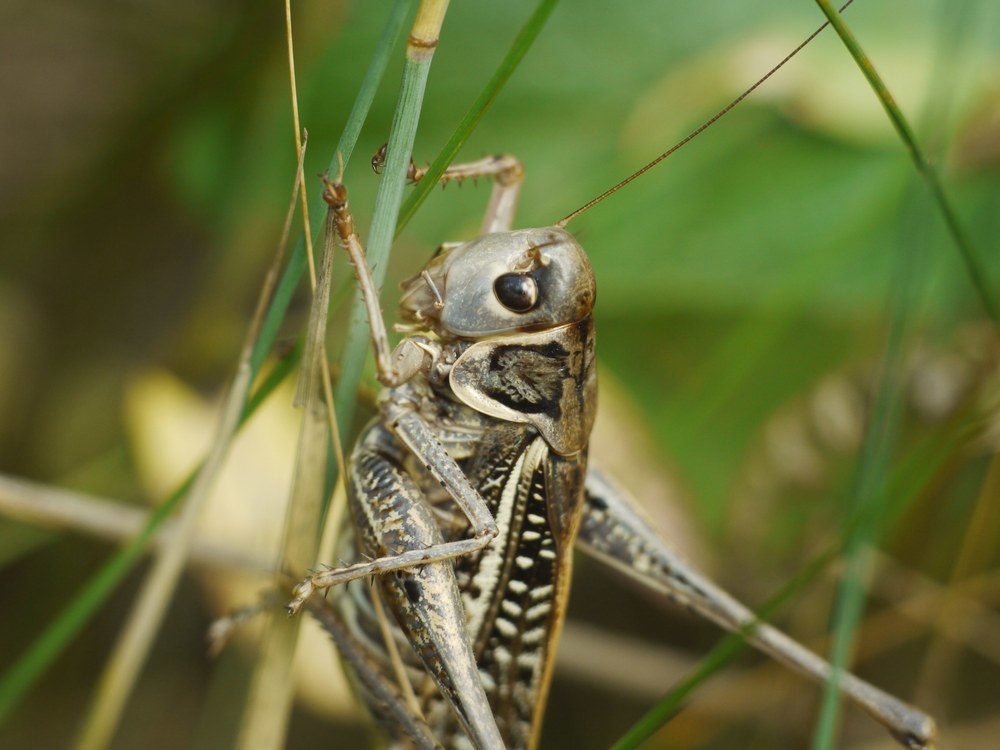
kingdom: Animalia
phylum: Arthropoda
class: Insecta
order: Orthoptera
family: Tettigoniidae
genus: Decticus
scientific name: Decticus albifrons
